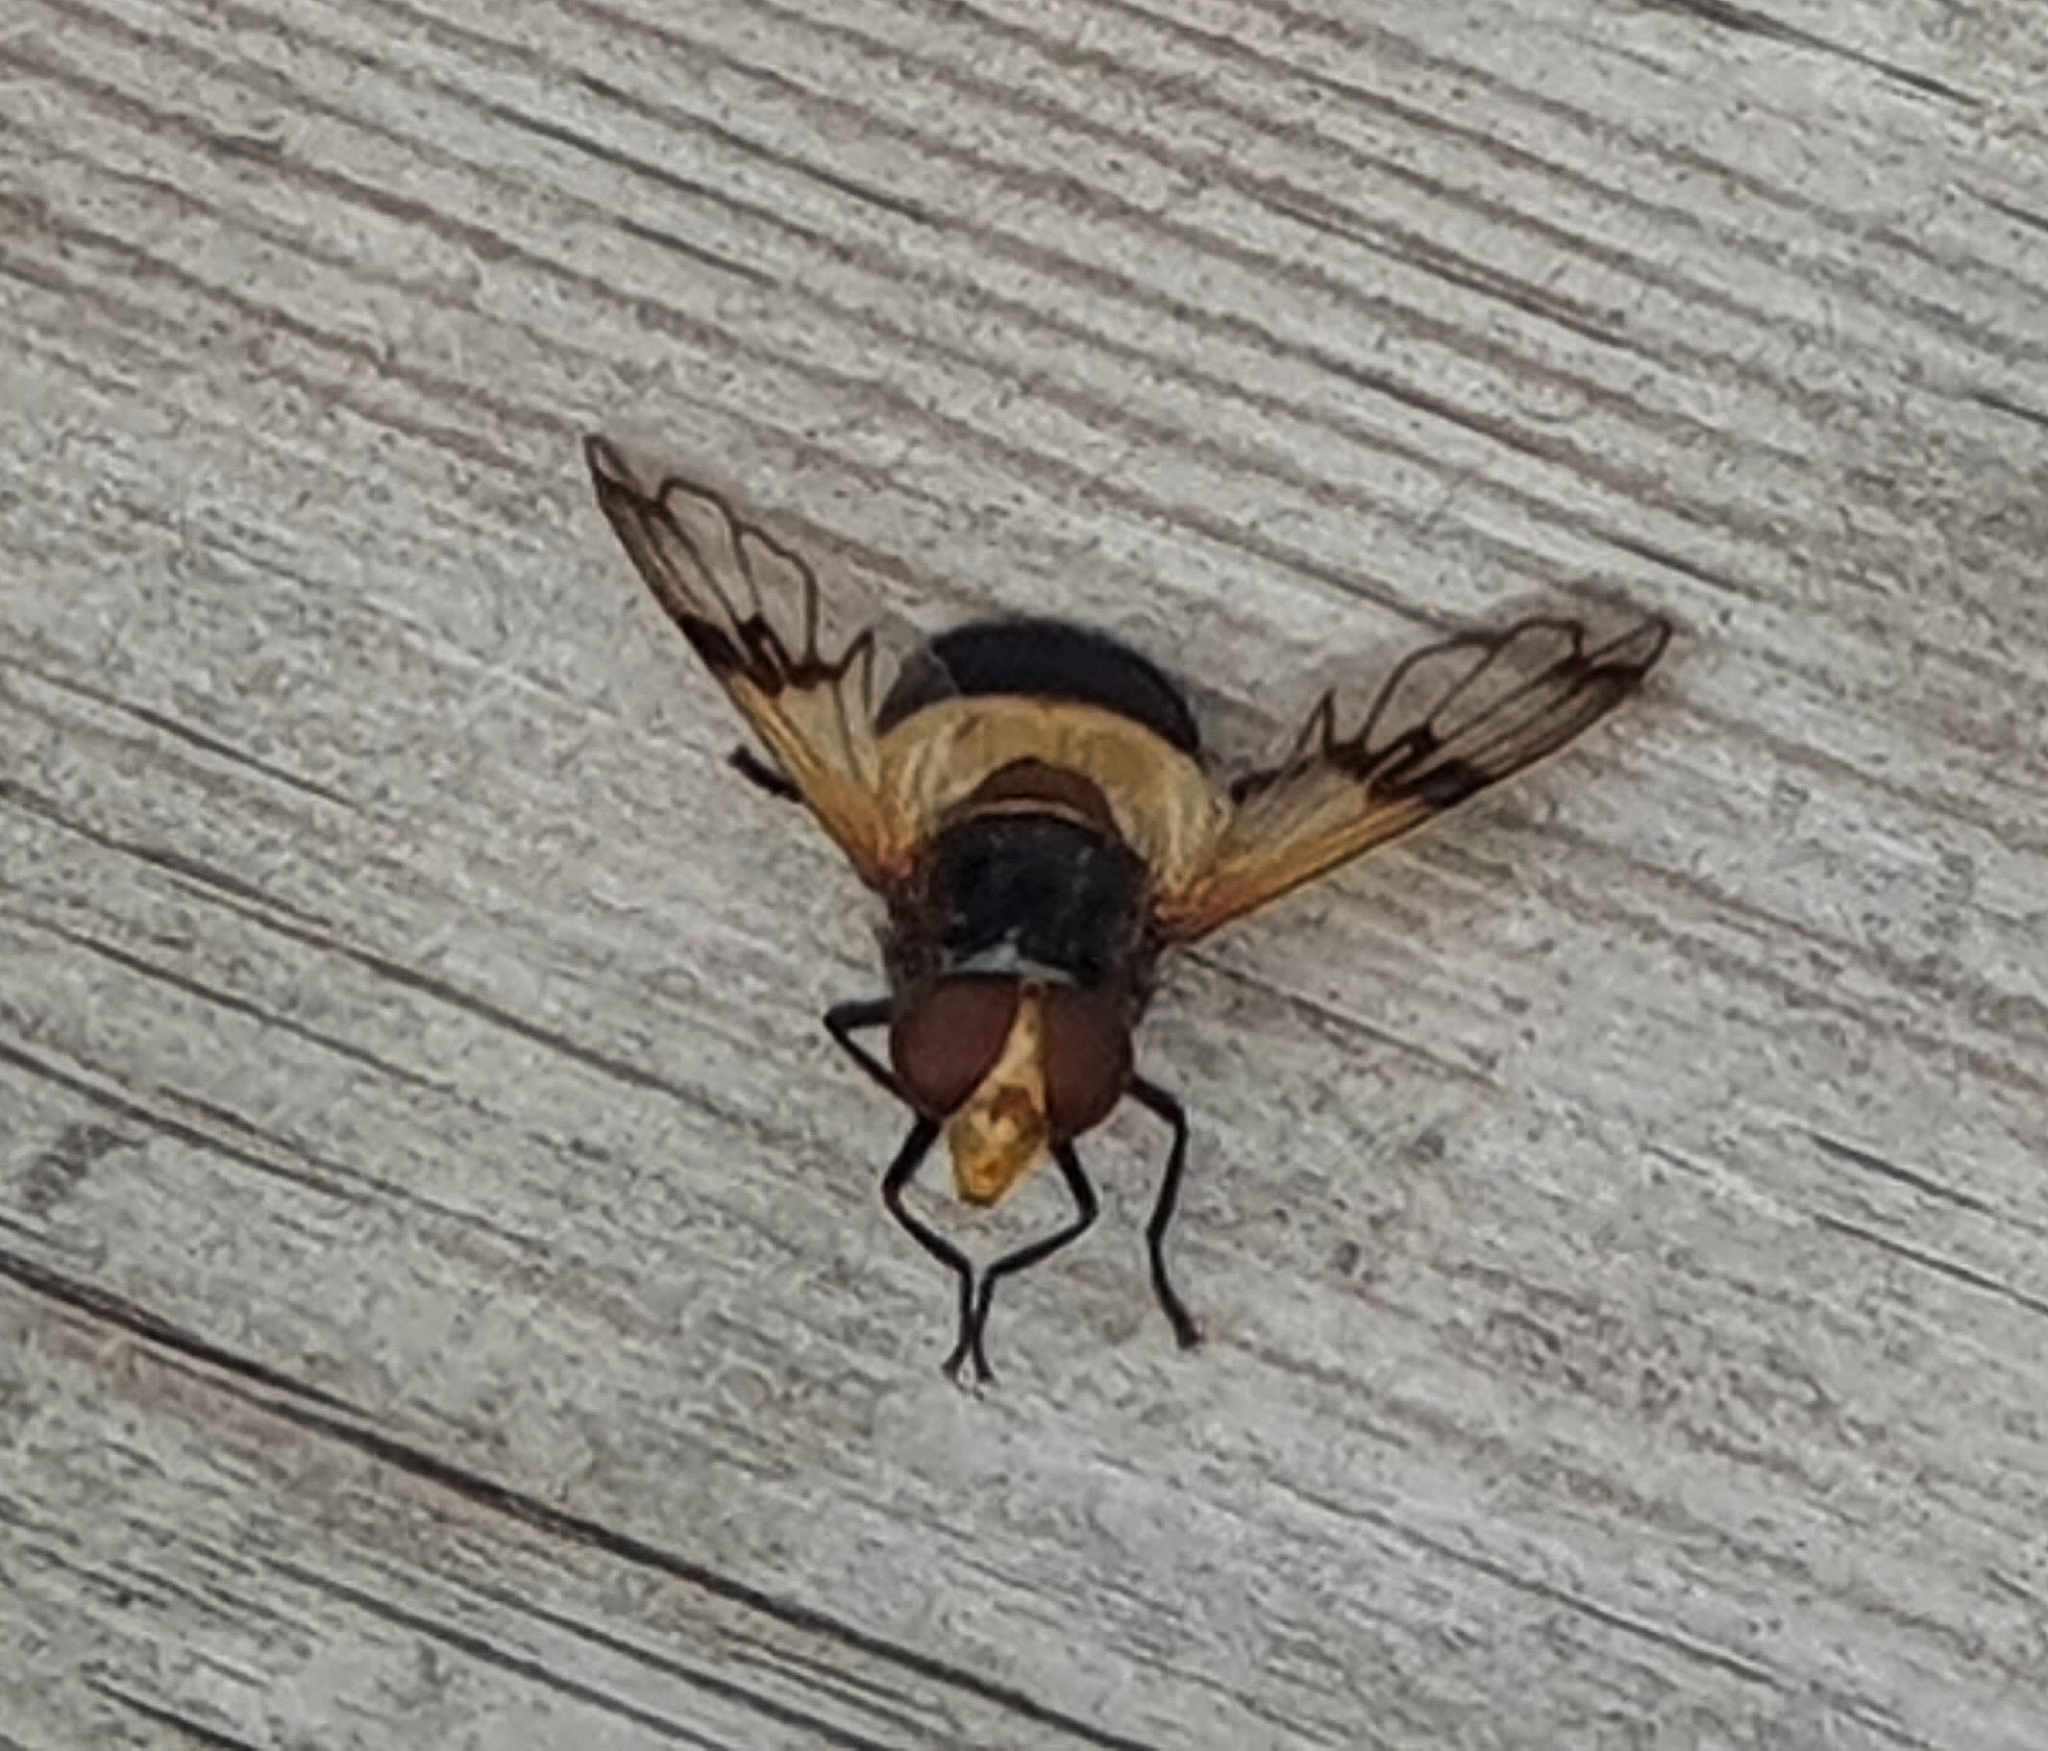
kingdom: Animalia
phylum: Arthropoda
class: Insecta
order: Diptera
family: Syrphidae
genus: Volucella
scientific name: Volucella pellucens
